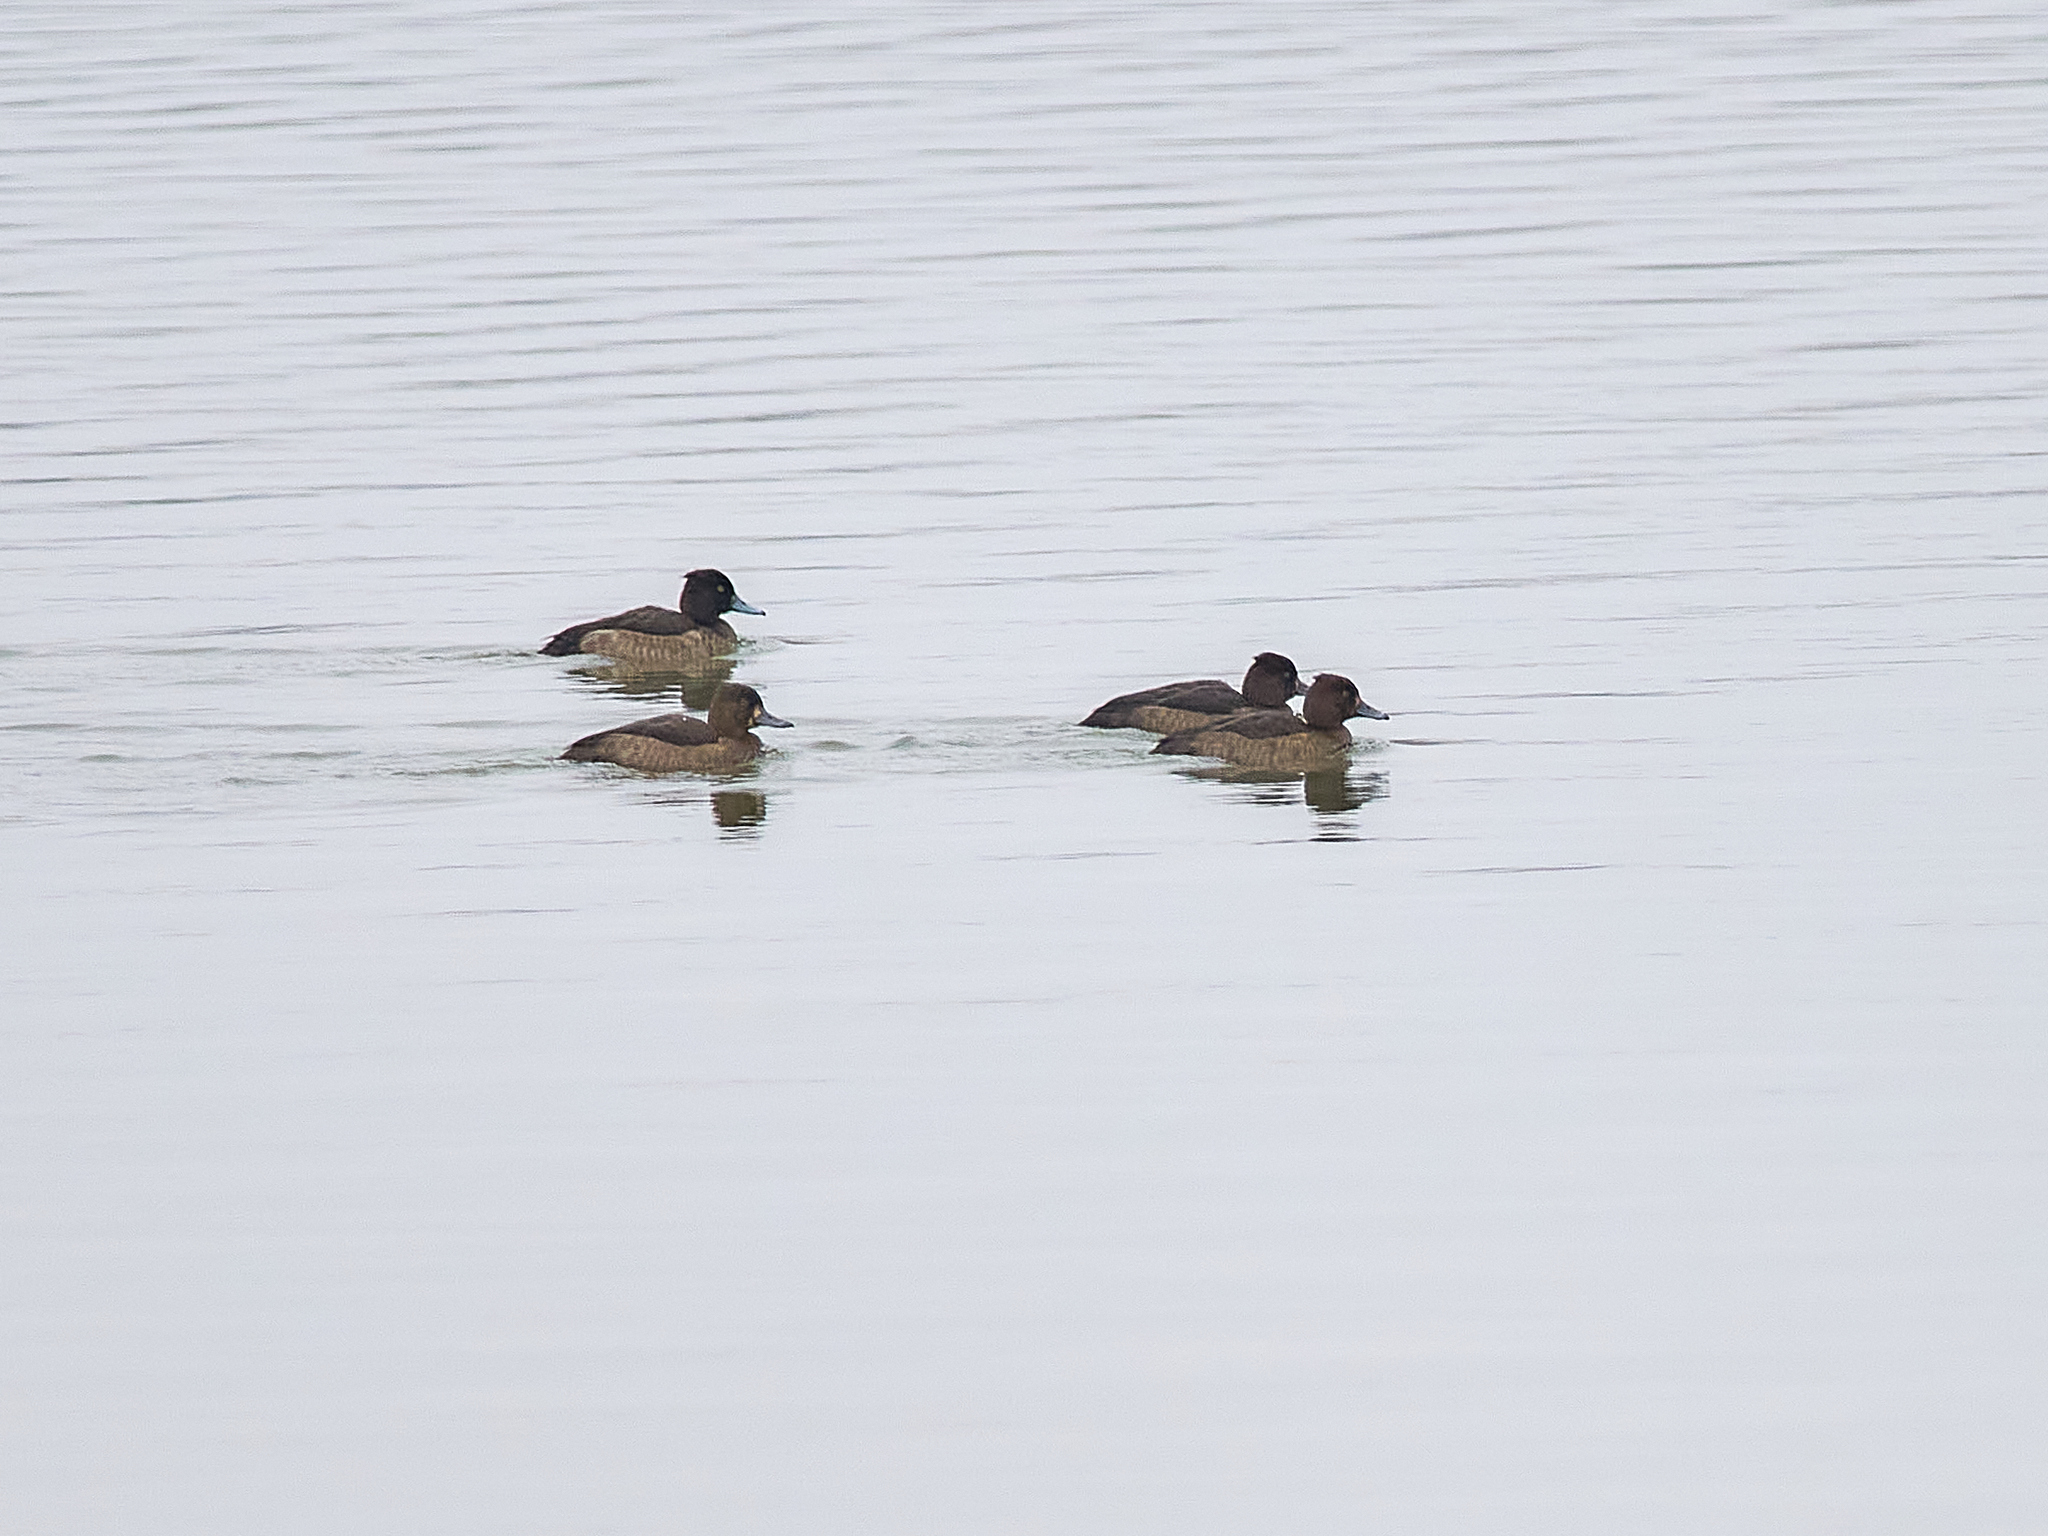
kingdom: Animalia
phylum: Chordata
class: Aves
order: Anseriformes
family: Anatidae
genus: Aythya
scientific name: Aythya fuligula
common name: Tufted duck
